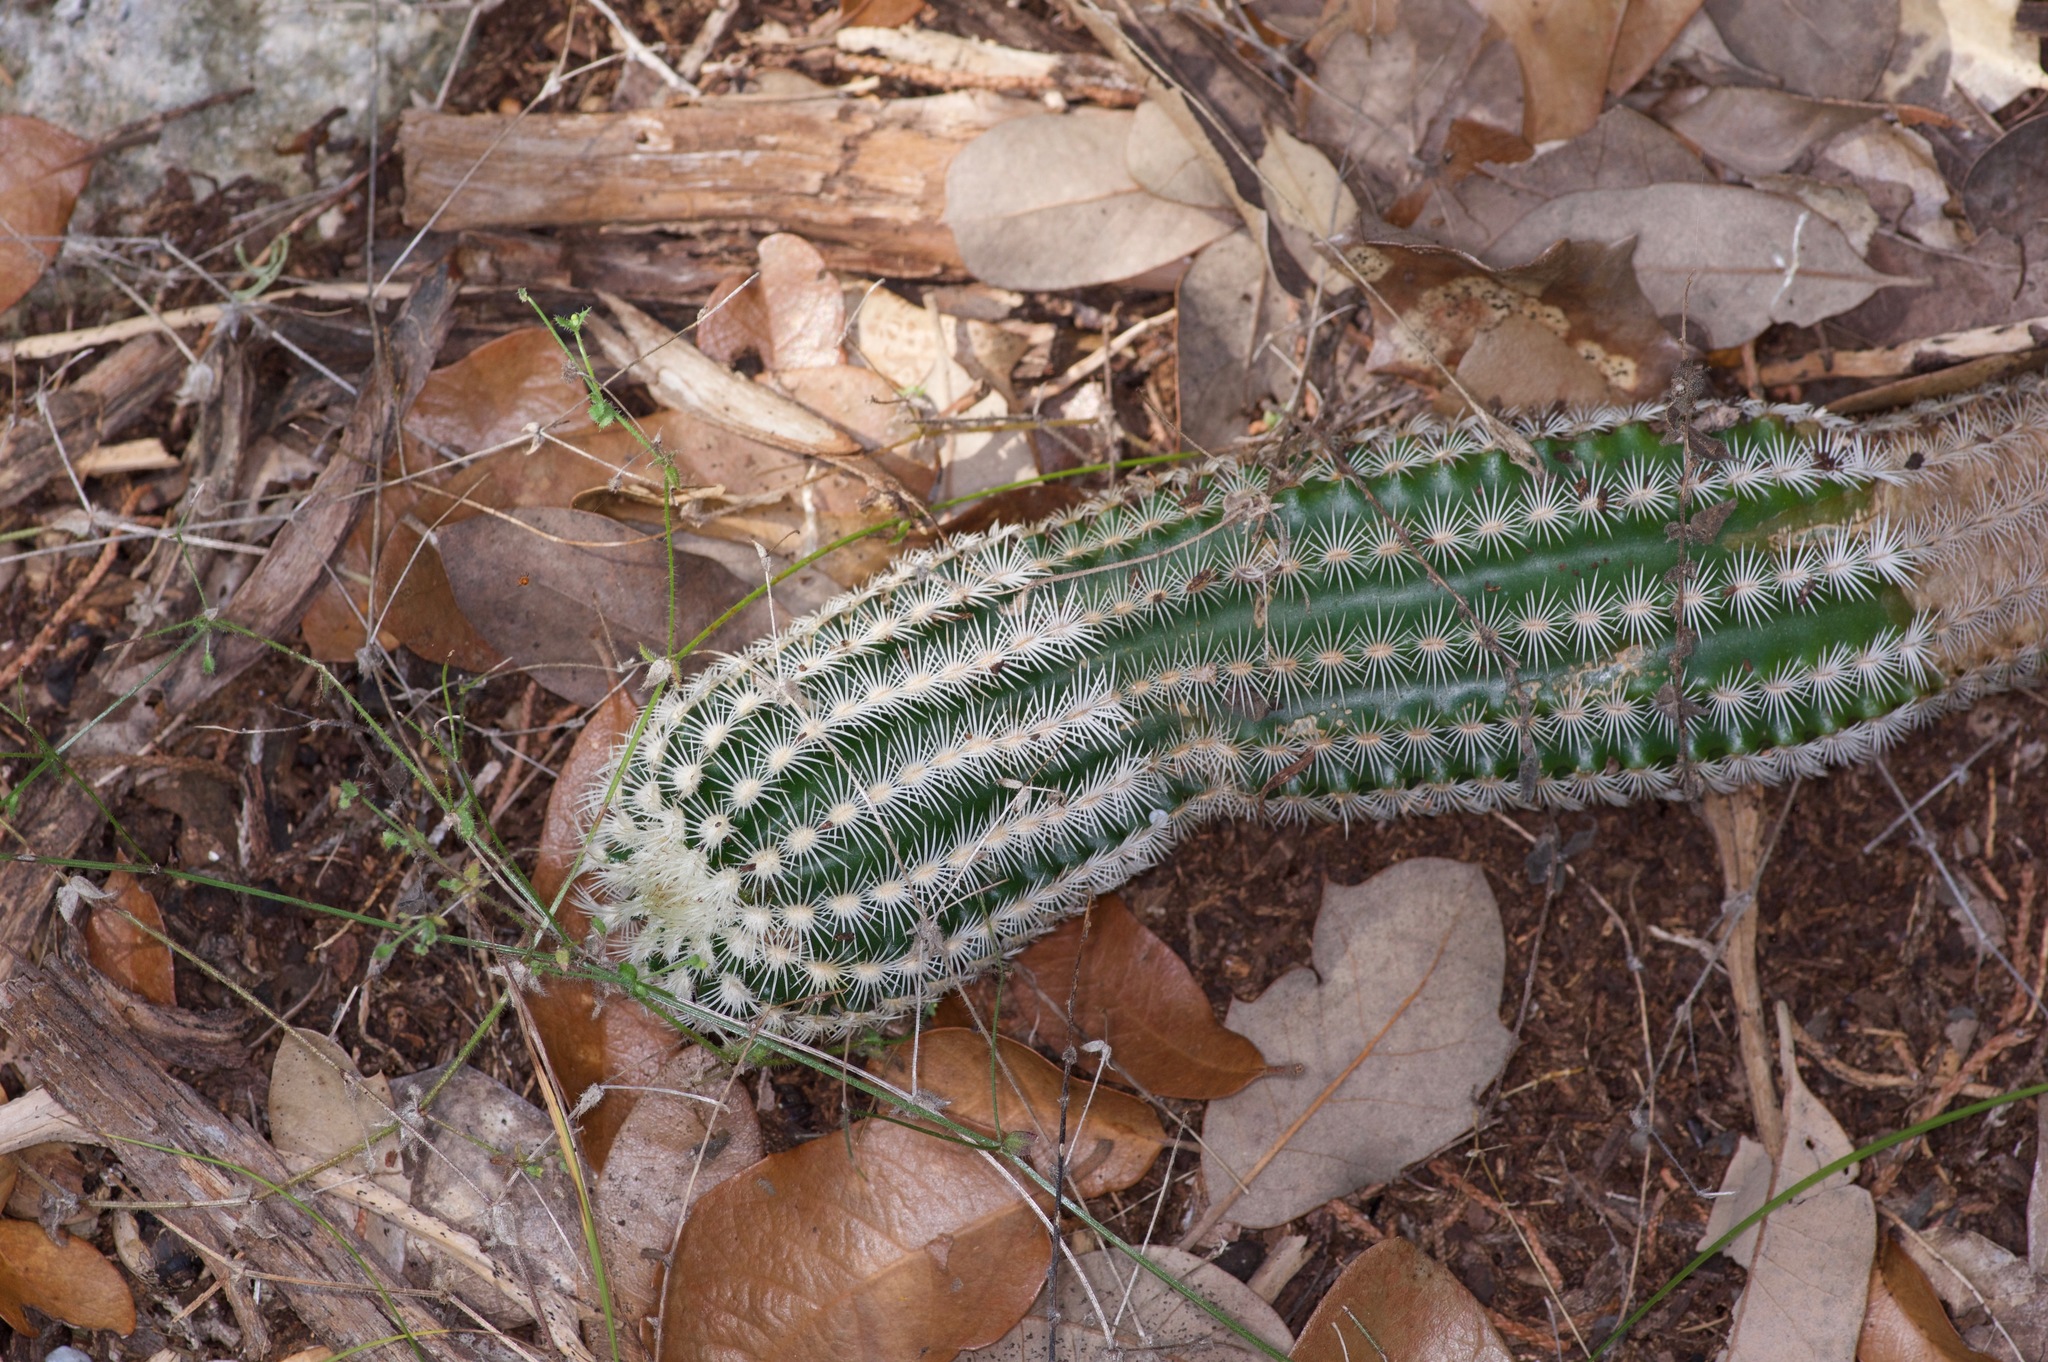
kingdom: Plantae
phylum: Tracheophyta
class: Magnoliopsida
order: Caryophyllales
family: Cactaceae
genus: Echinocereus
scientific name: Echinocereus reichenbachii
